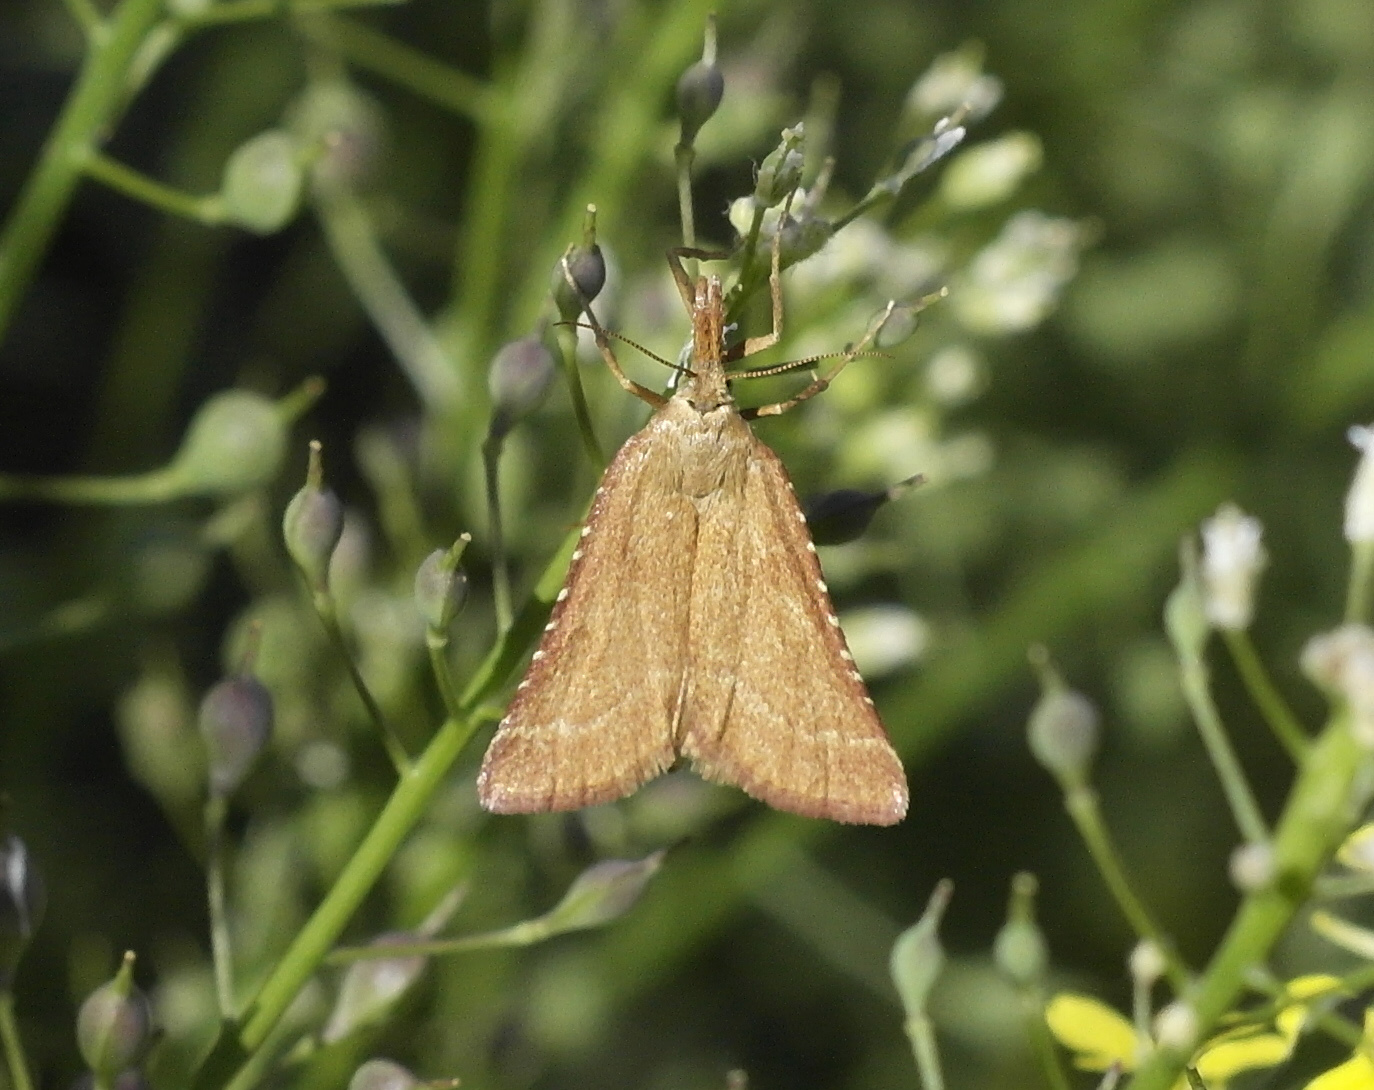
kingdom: Animalia
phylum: Arthropoda
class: Insecta
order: Lepidoptera
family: Pyralidae
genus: Synaphe
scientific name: Synaphe antennalis
